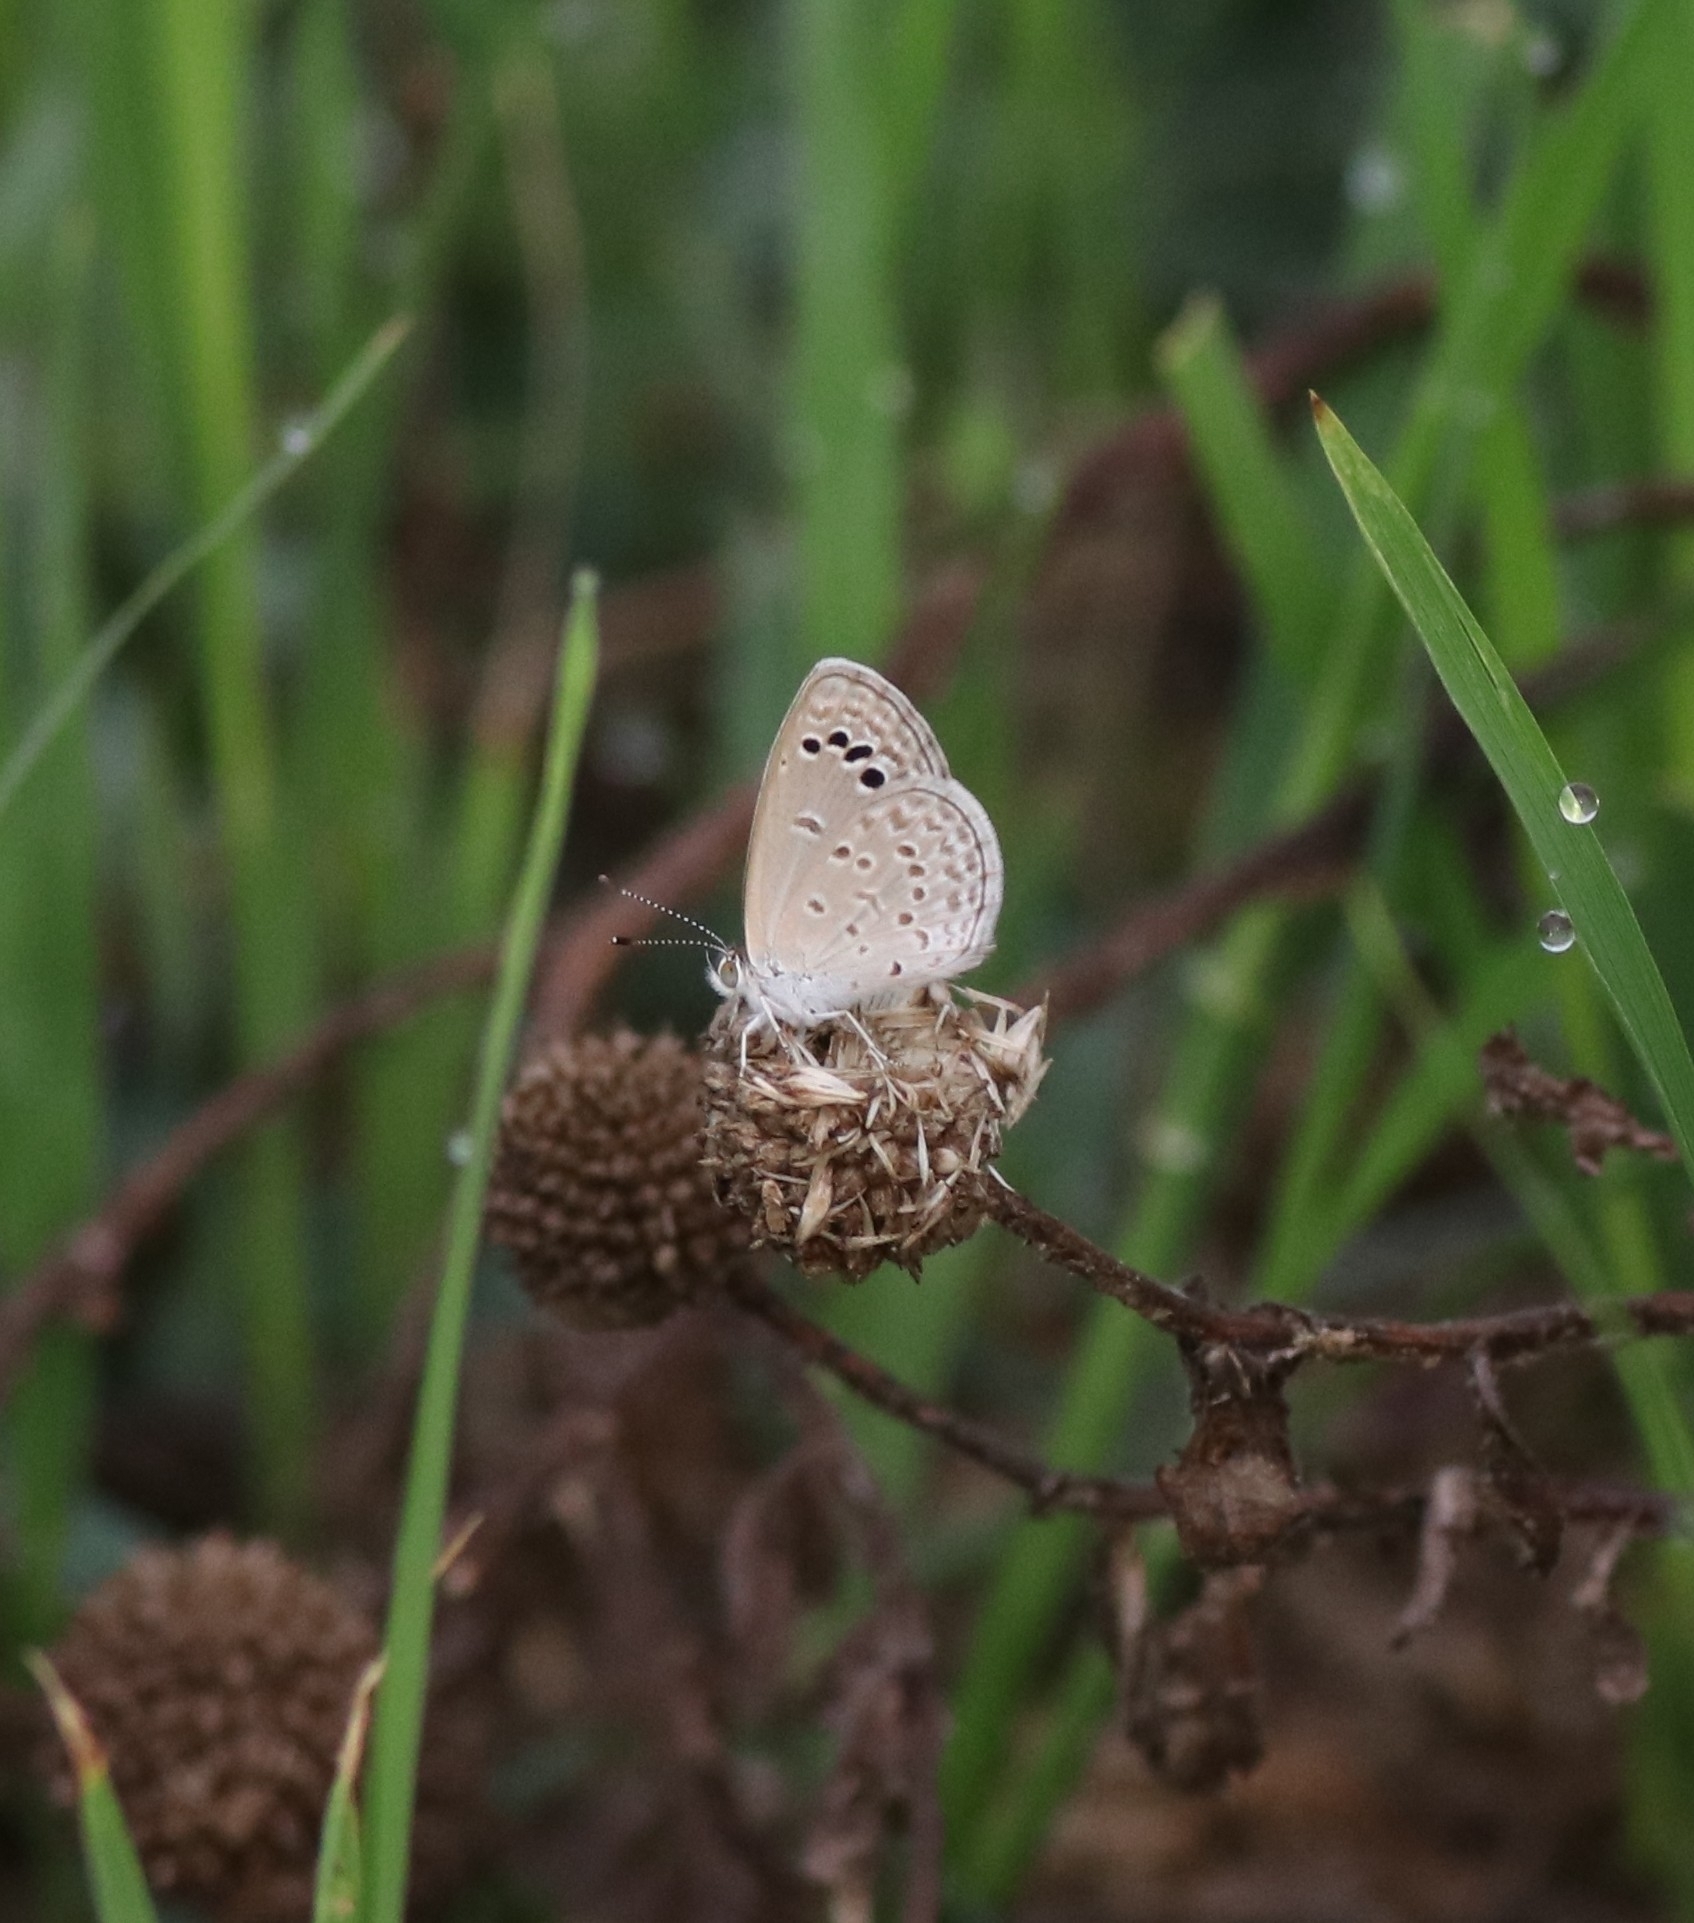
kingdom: Animalia
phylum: Arthropoda
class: Insecta
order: Lepidoptera
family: Lycaenidae
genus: Zizina
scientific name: Zizina otis
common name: Lesser grass blue
